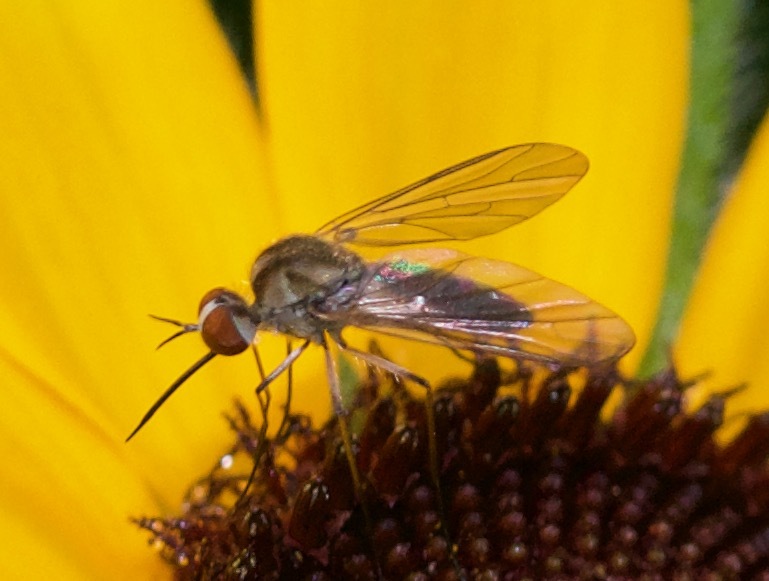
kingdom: Animalia
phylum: Arthropoda
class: Insecta
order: Diptera
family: Bombyliidae
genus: Geron
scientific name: Geron calvus
